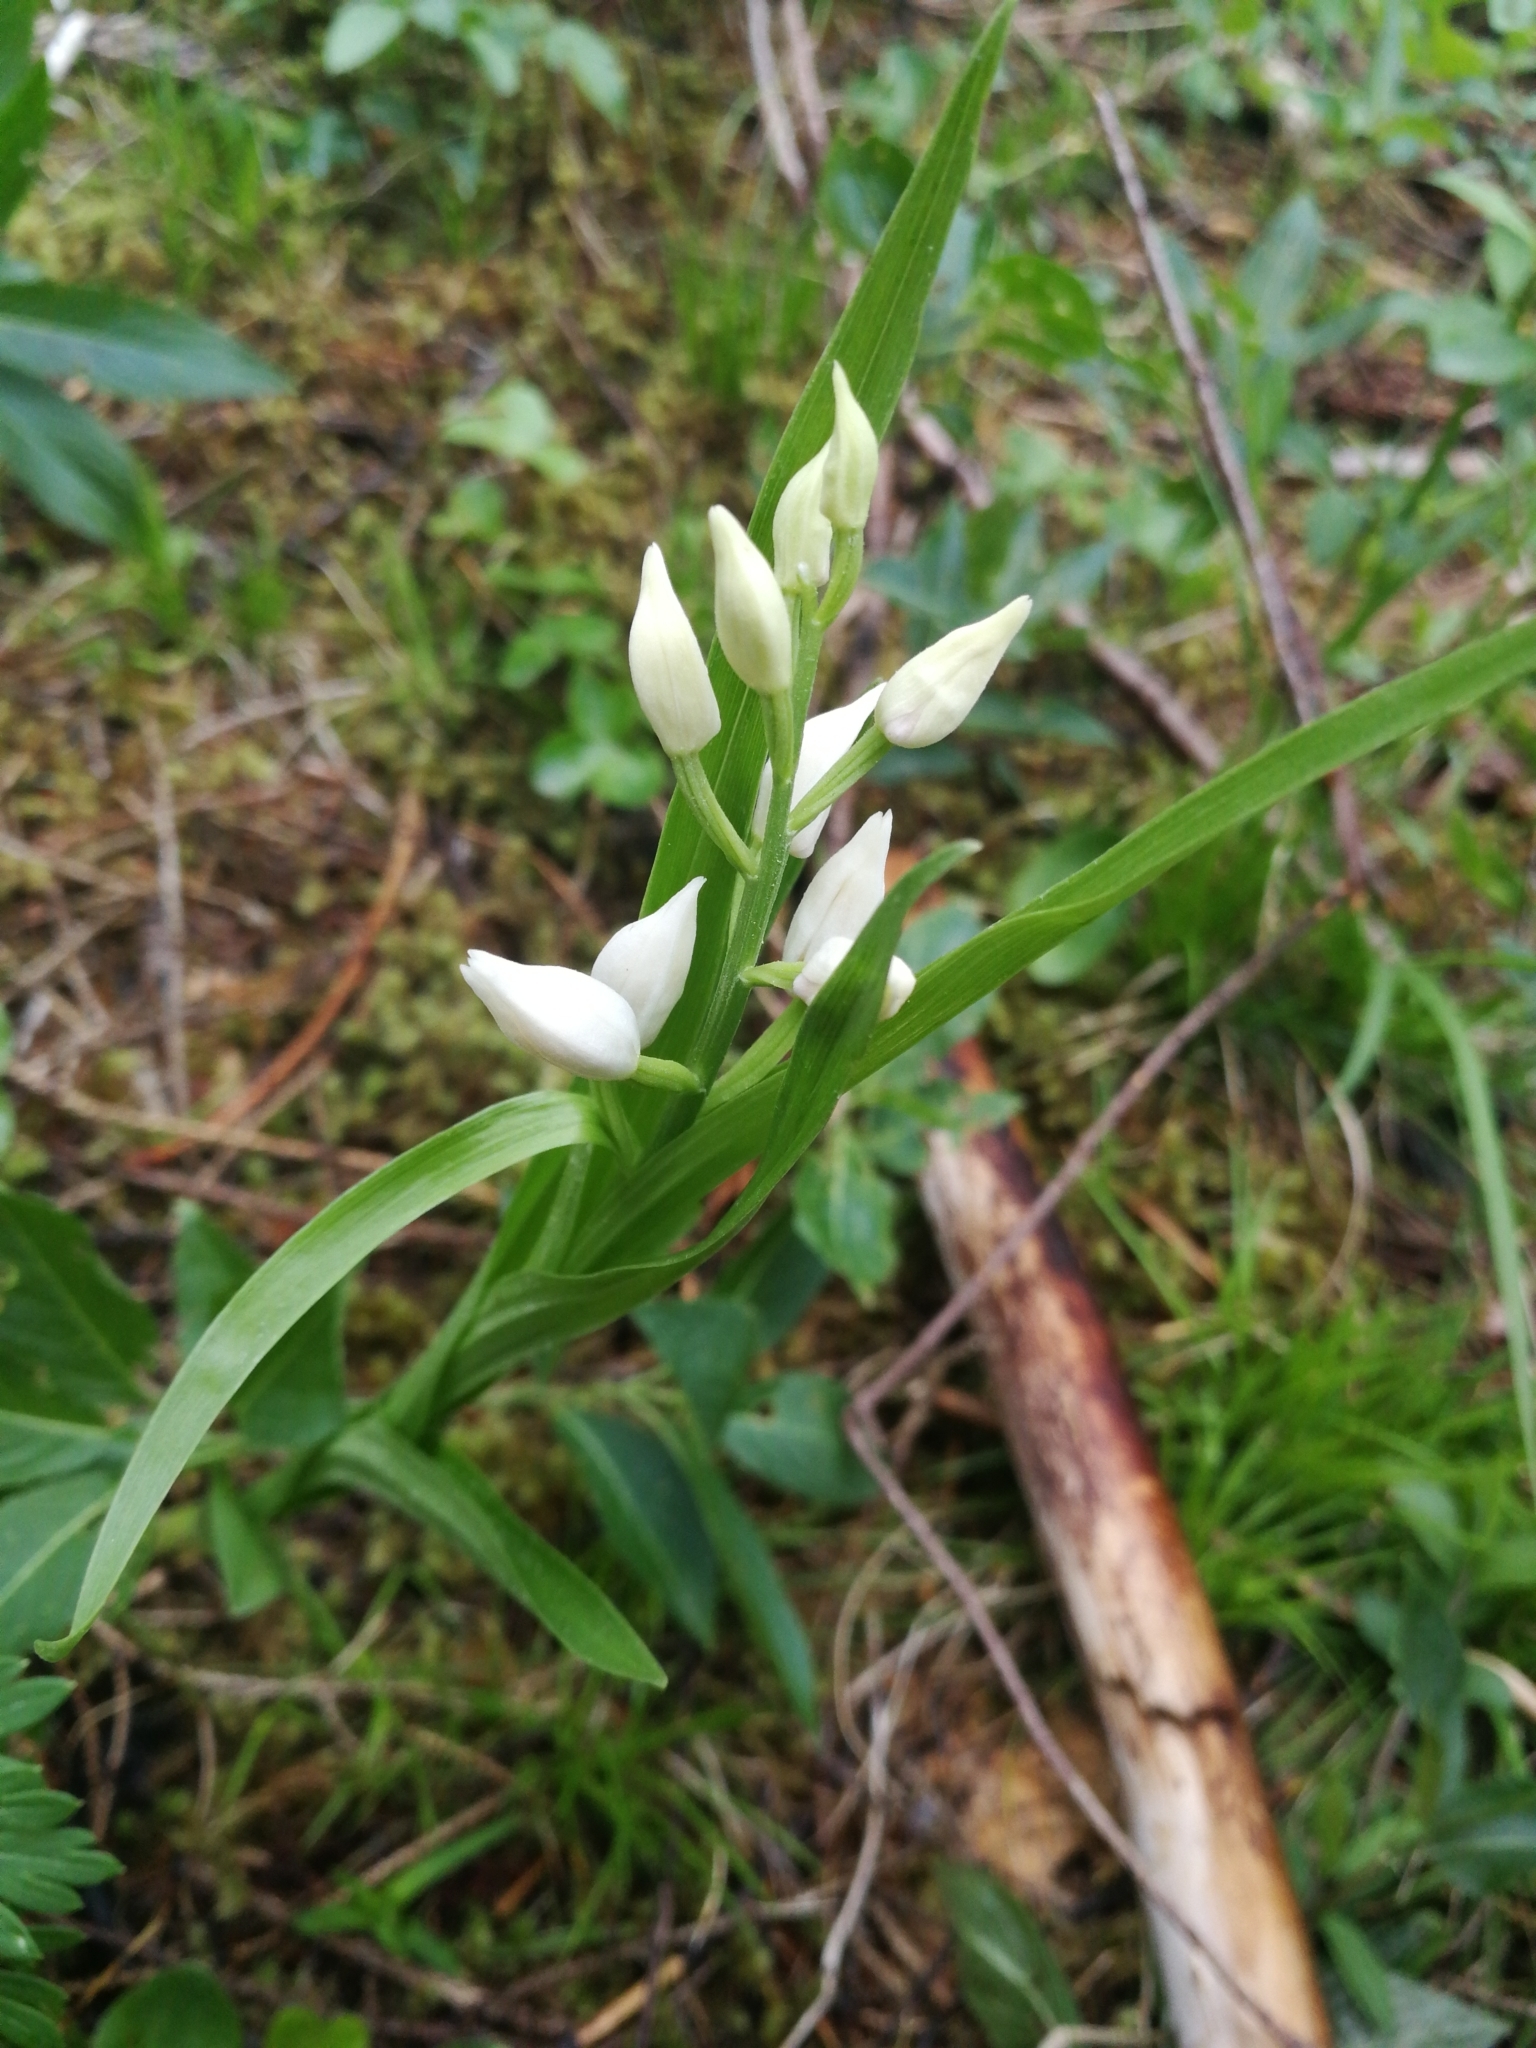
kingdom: Plantae
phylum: Tracheophyta
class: Liliopsida
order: Asparagales
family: Orchidaceae
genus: Cephalanthera
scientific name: Cephalanthera longifolia
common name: Narrow-leaved helleborine
